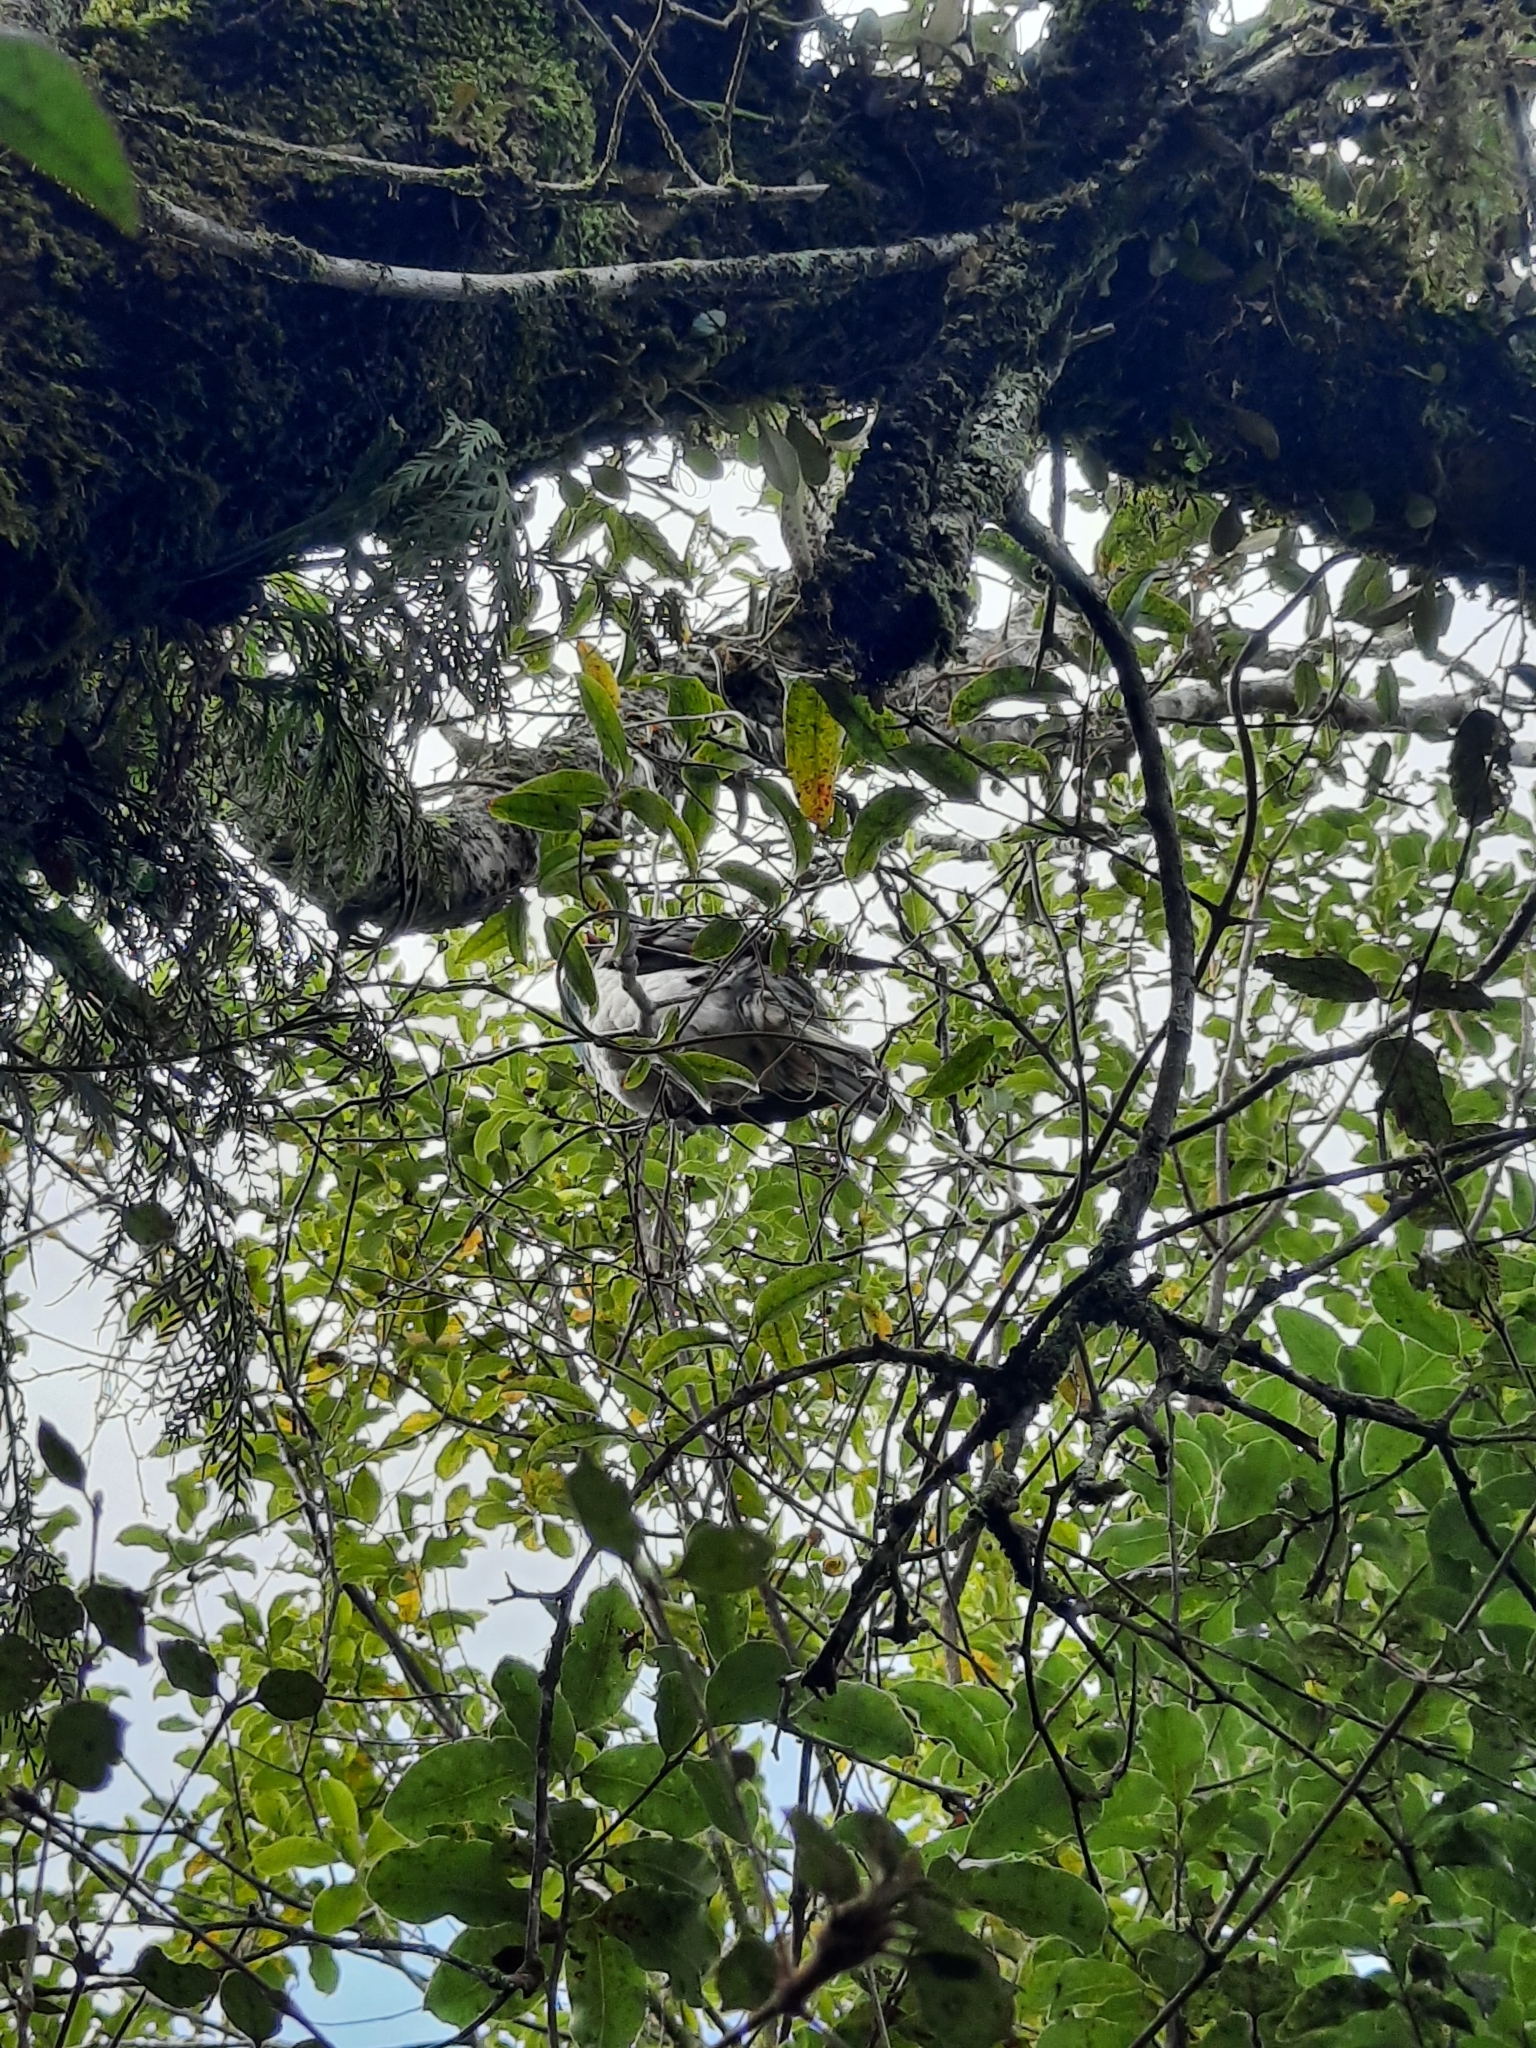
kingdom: Animalia
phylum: Chordata
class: Aves
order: Columbiformes
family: Columbidae
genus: Hemiphaga
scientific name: Hemiphaga novaeseelandiae
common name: New zealand pigeon
